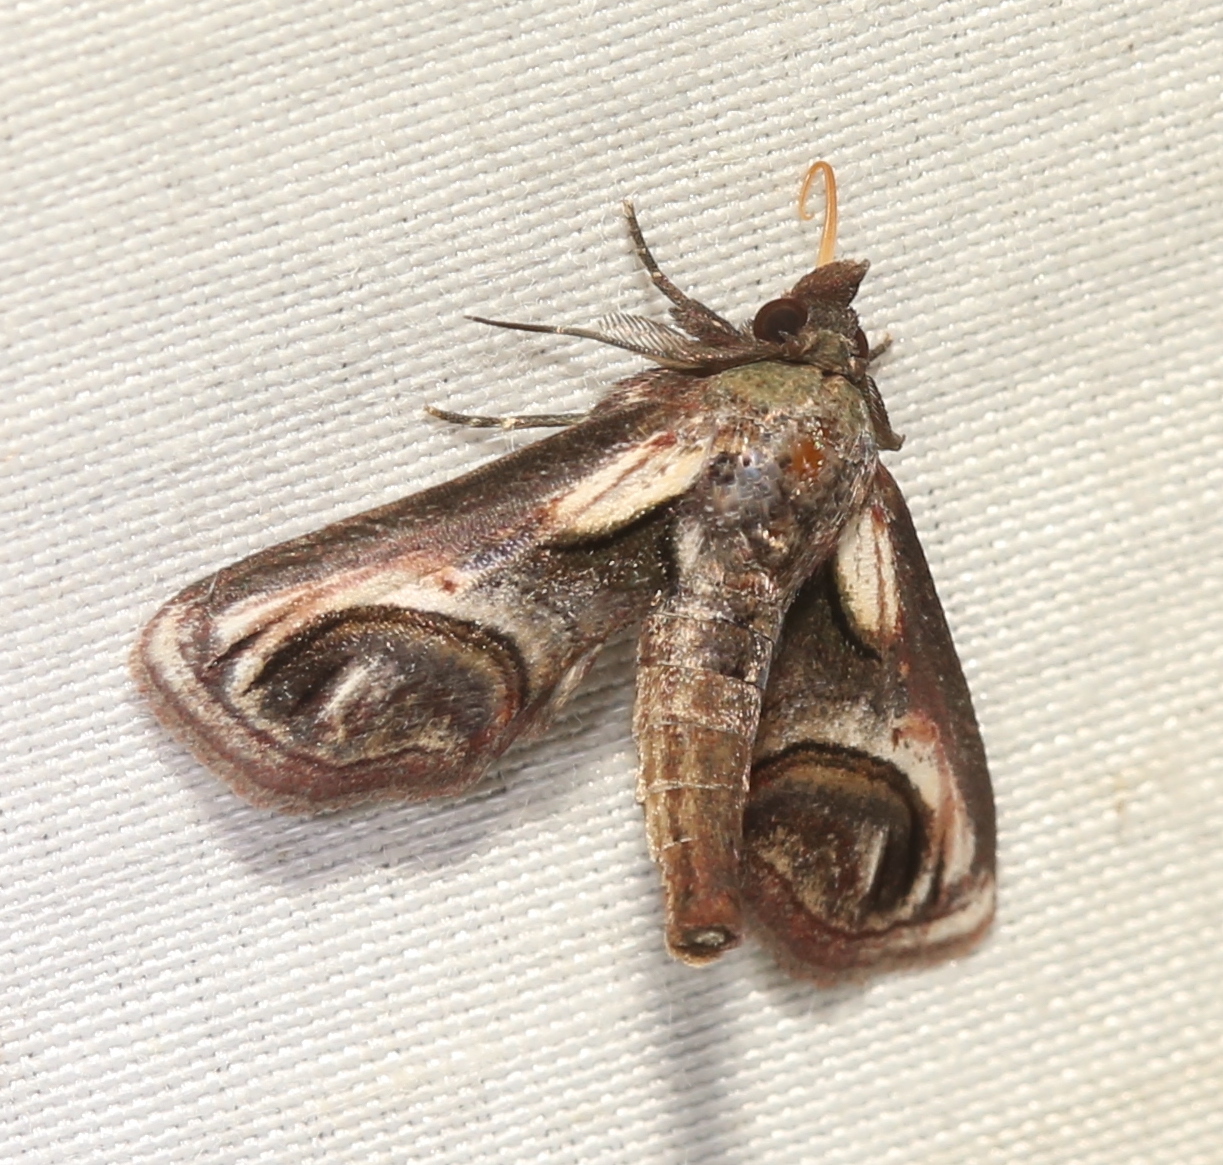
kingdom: Animalia
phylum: Arthropoda
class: Insecta
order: Lepidoptera
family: Euteliidae
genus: Paectes
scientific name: Paectes oculatrix
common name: Eyed paectes moth
